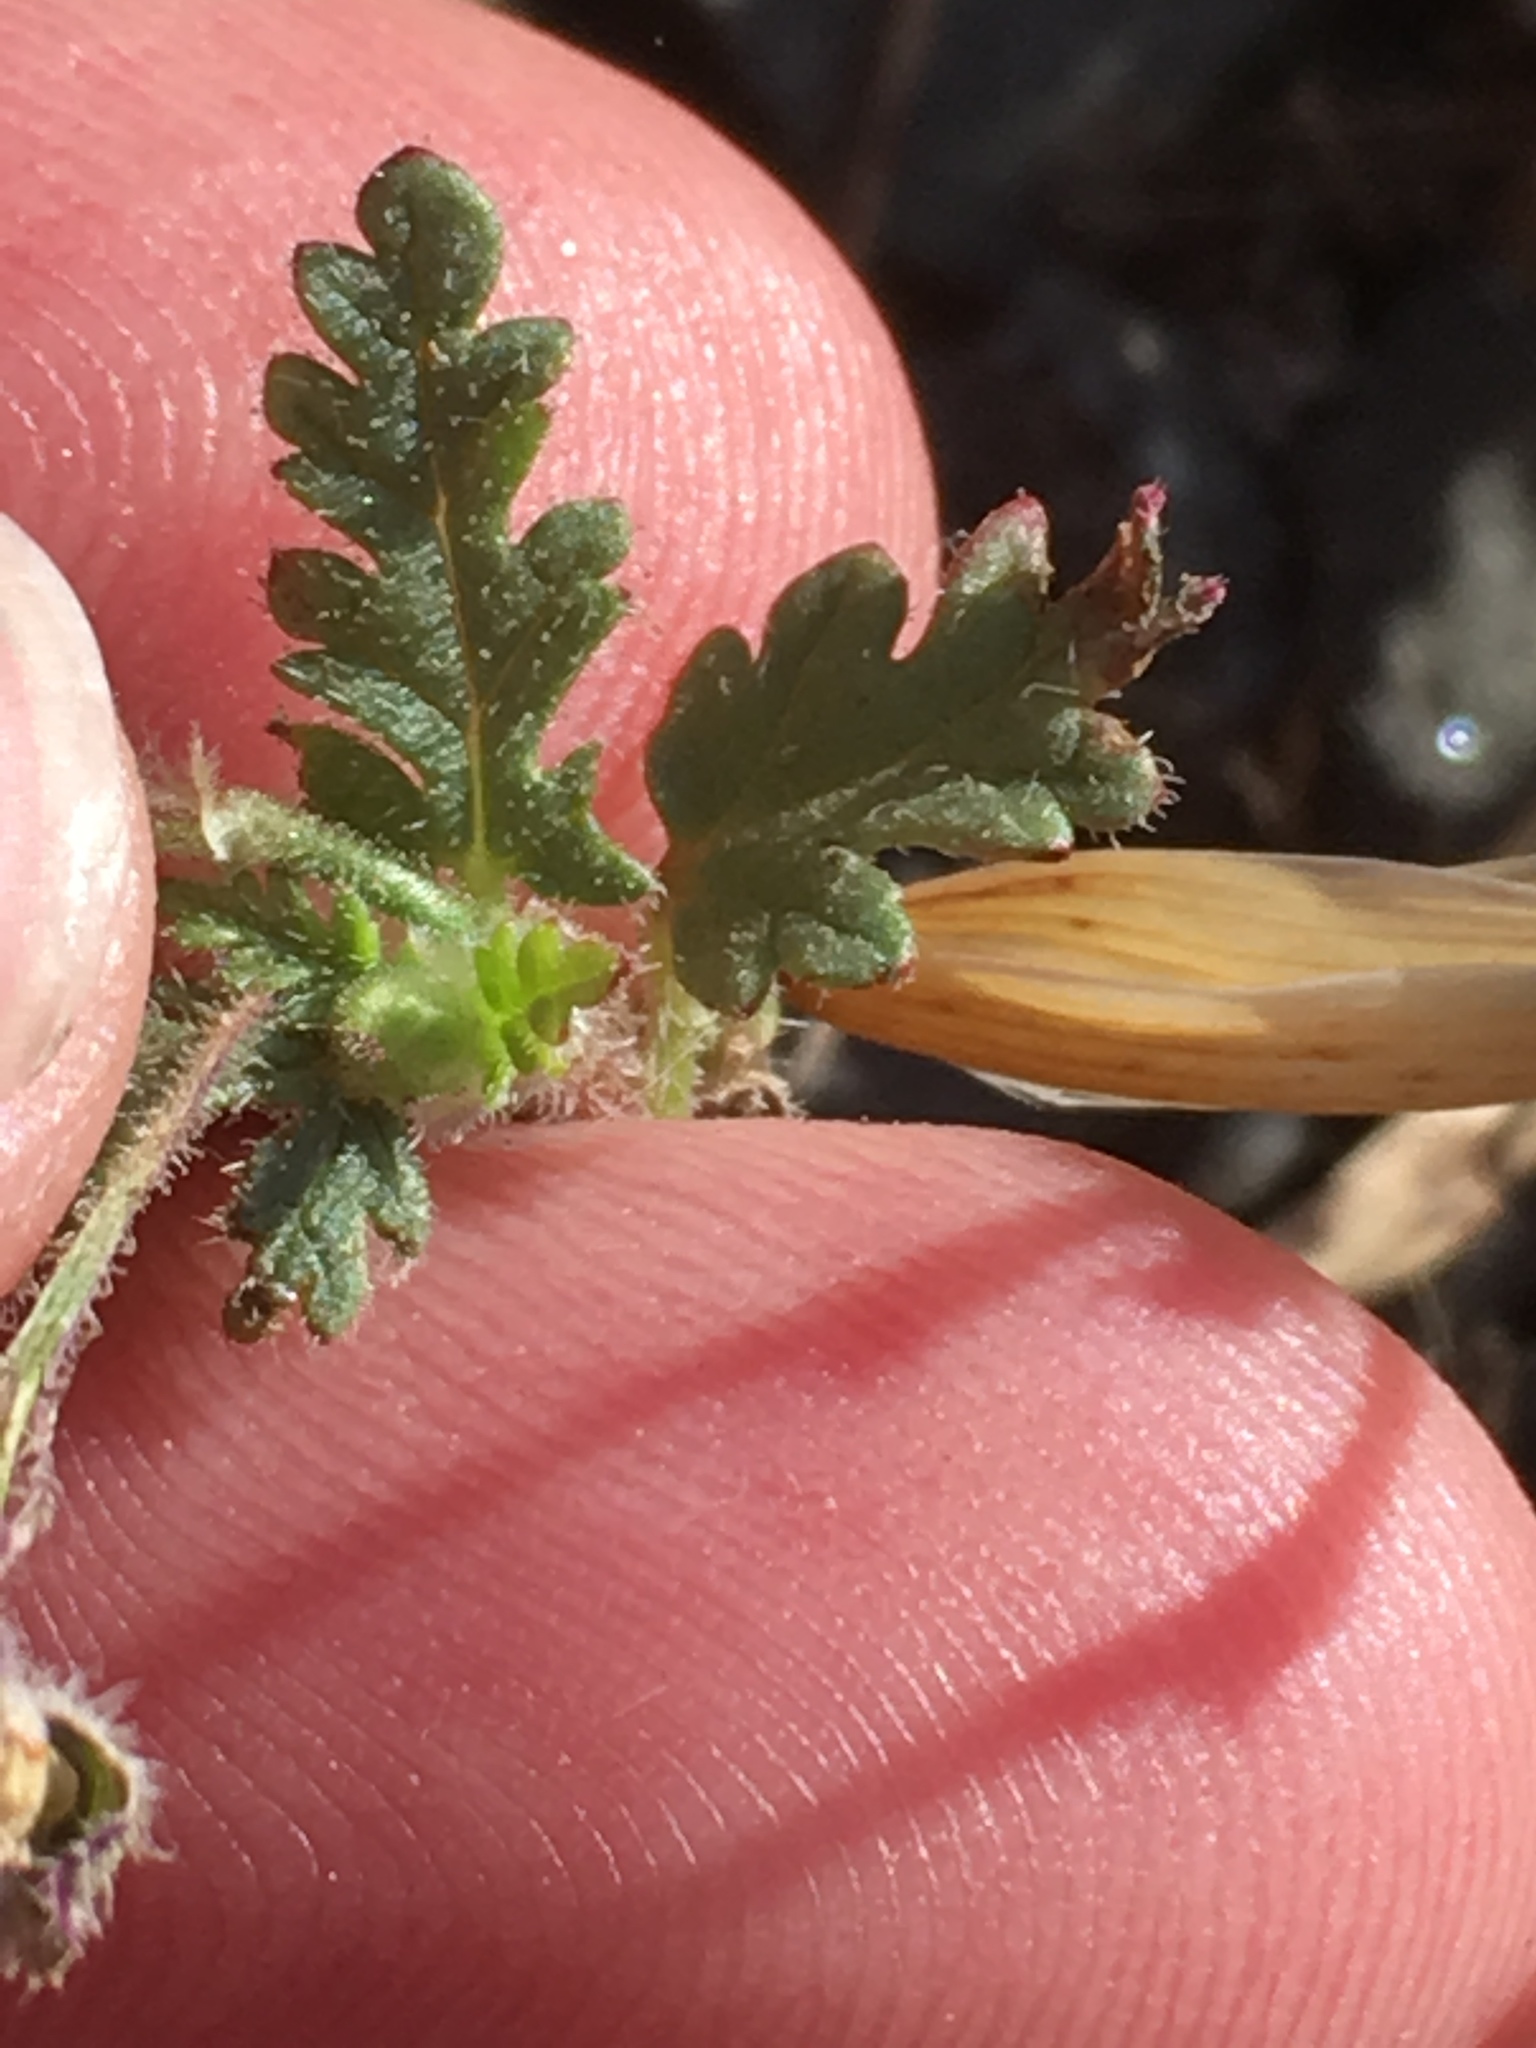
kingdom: Plantae
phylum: Tracheophyta
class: Magnoliopsida
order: Geraniales
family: Geraniaceae
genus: Erodium
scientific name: Erodium botrys
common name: Mediterranean stork's-bill
